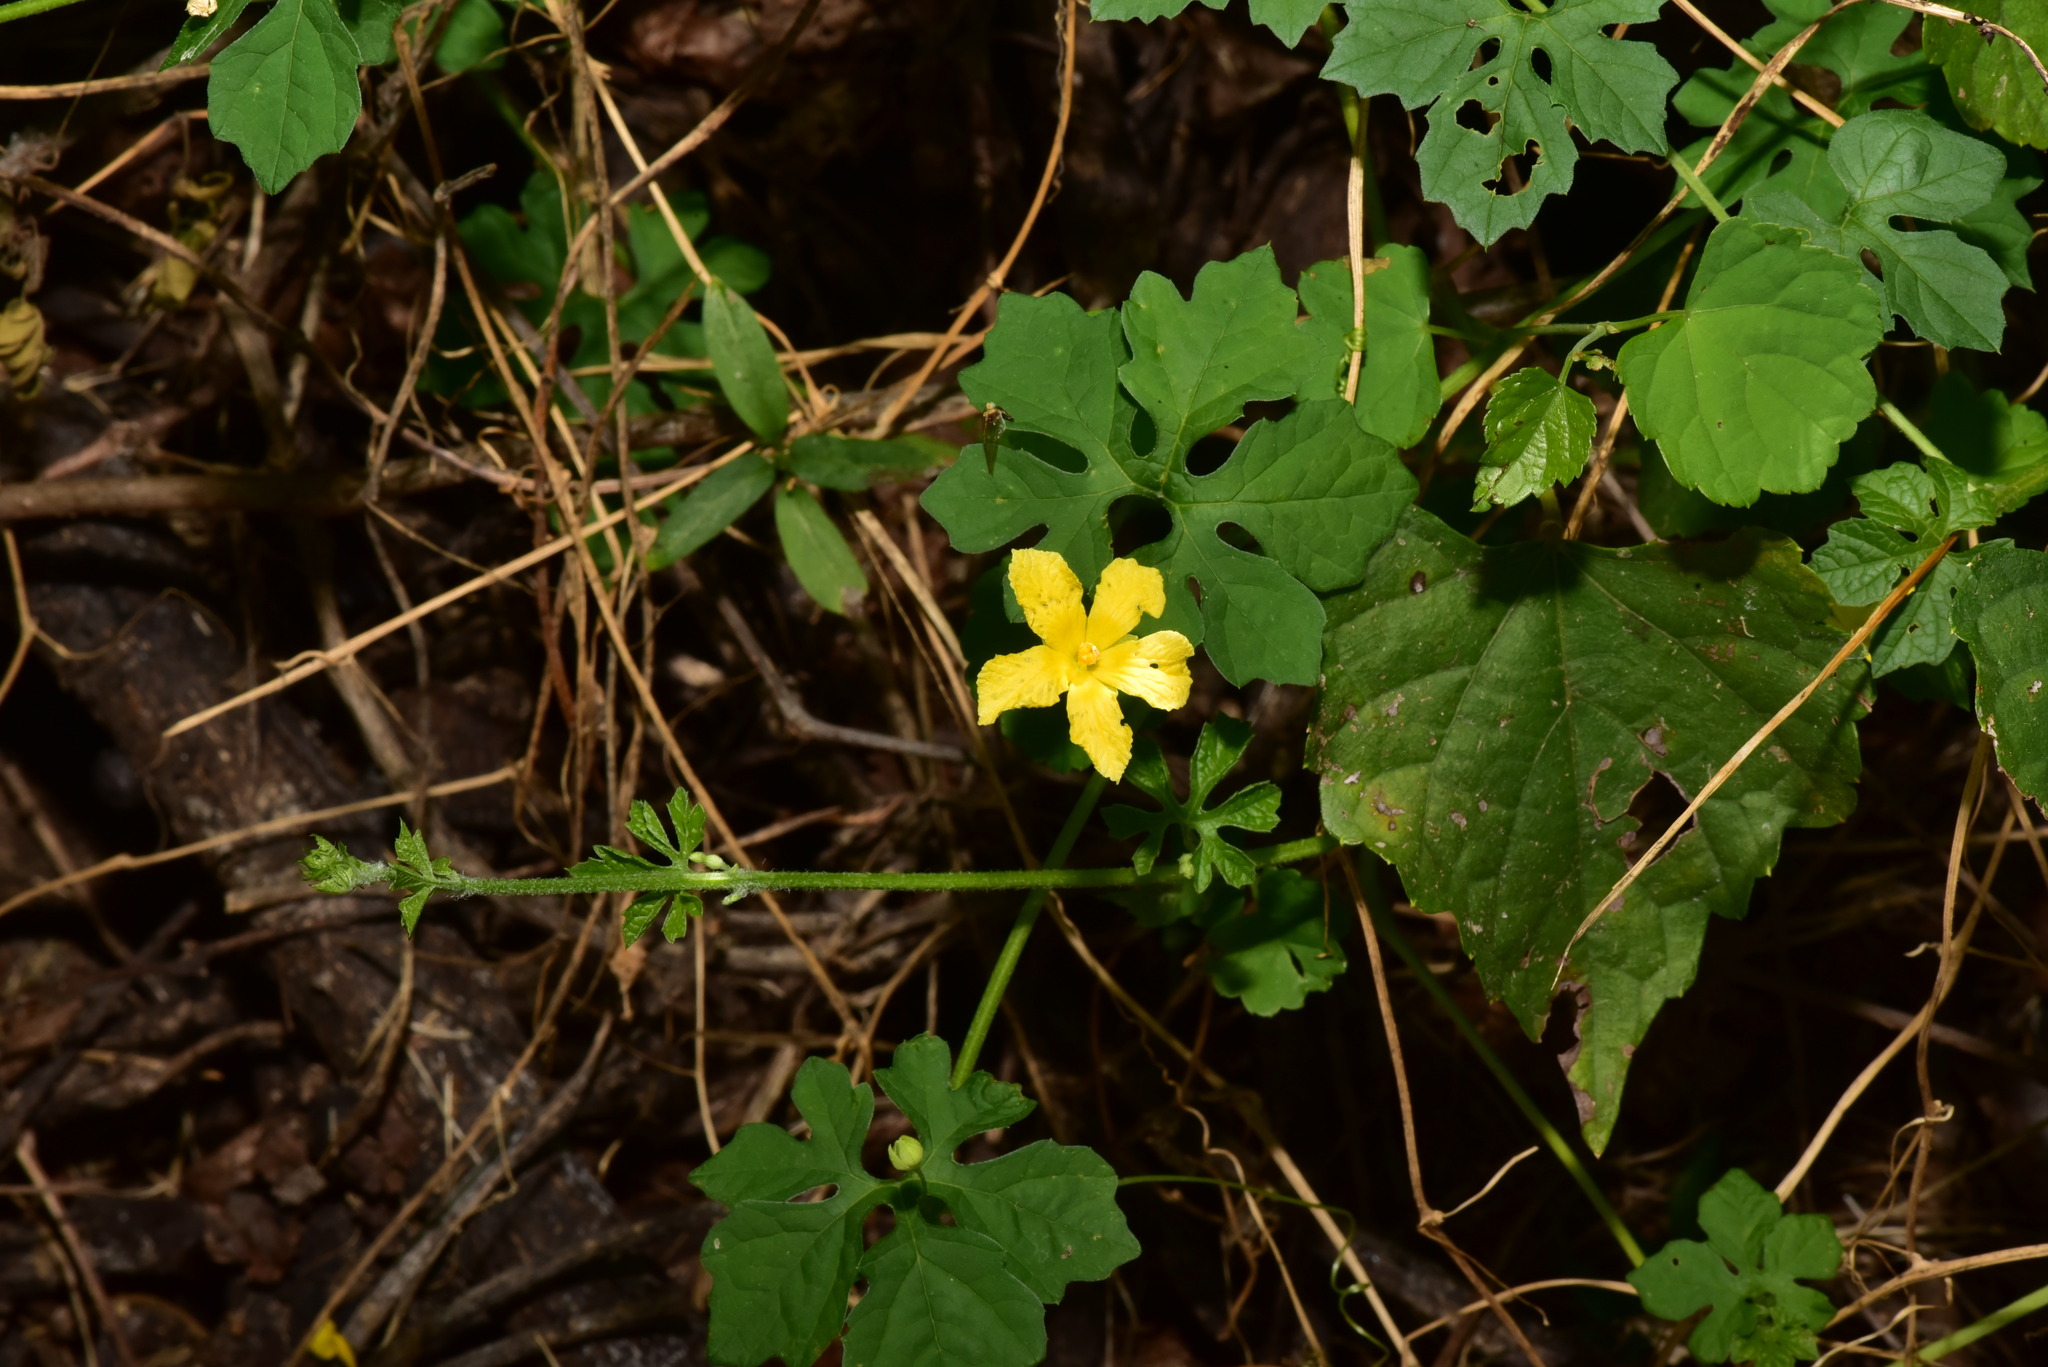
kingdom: Plantae
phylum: Tracheophyta
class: Magnoliopsida
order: Cucurbitales
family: Cucurbitaceae
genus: Momordica
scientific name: Momordica charantia
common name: Balsampear
